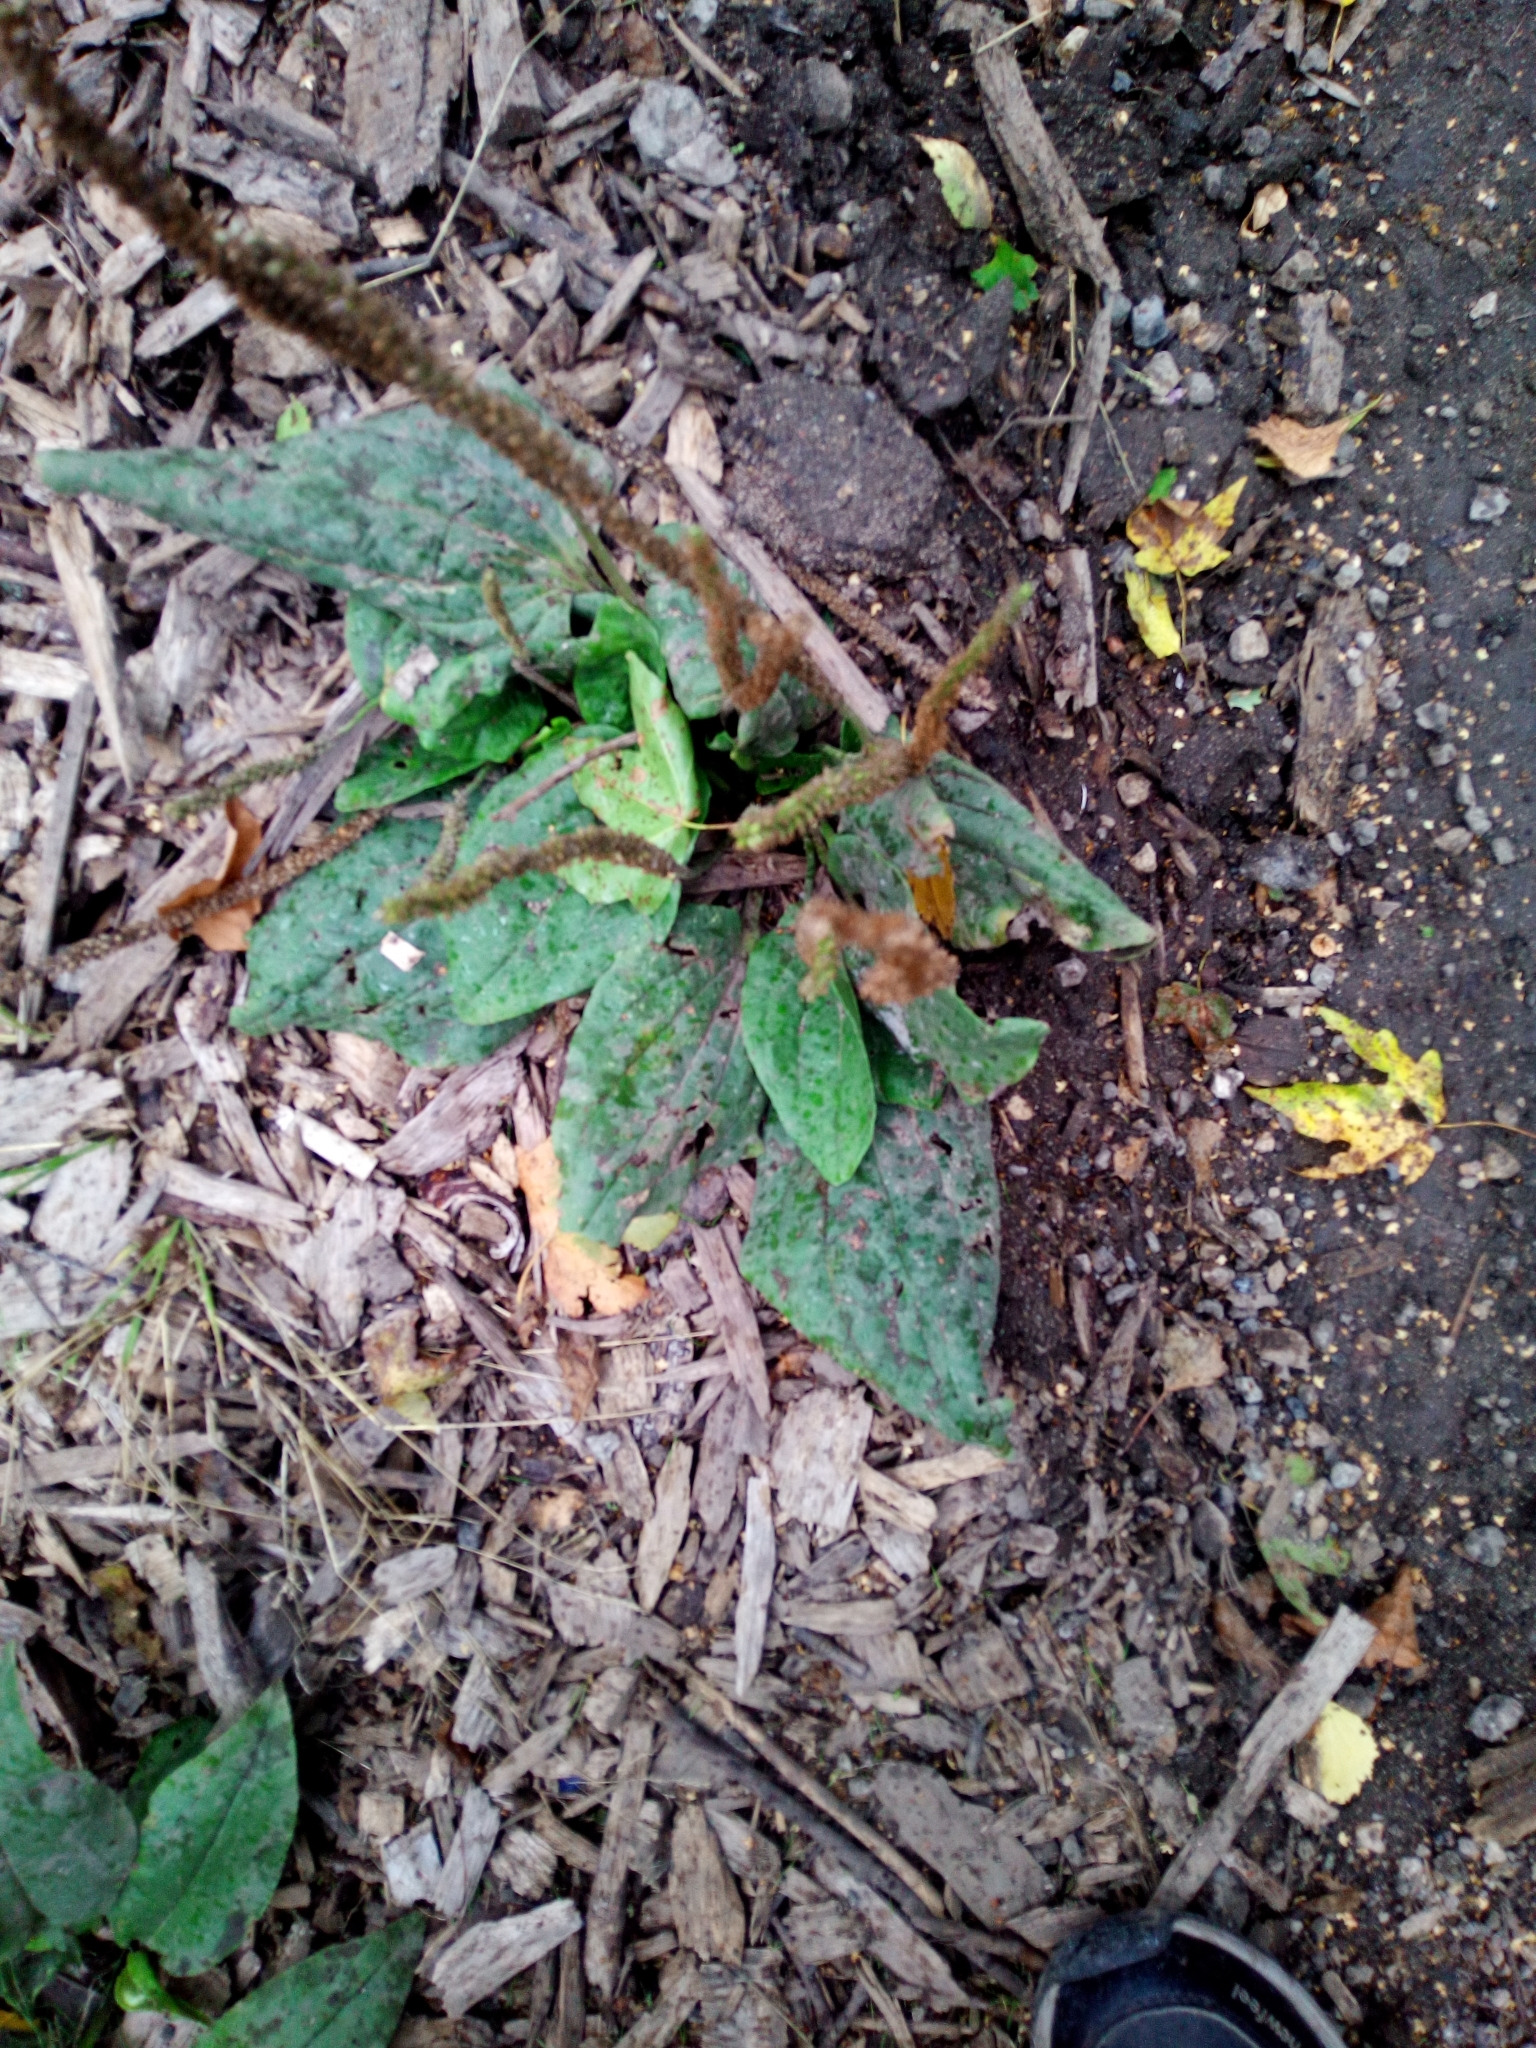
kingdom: Plantae
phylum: Tracheophyta
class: Magnoliopsida
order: Lamiales
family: Plantaginaceae
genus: Plantago
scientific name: Plantago major
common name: Common plantain
